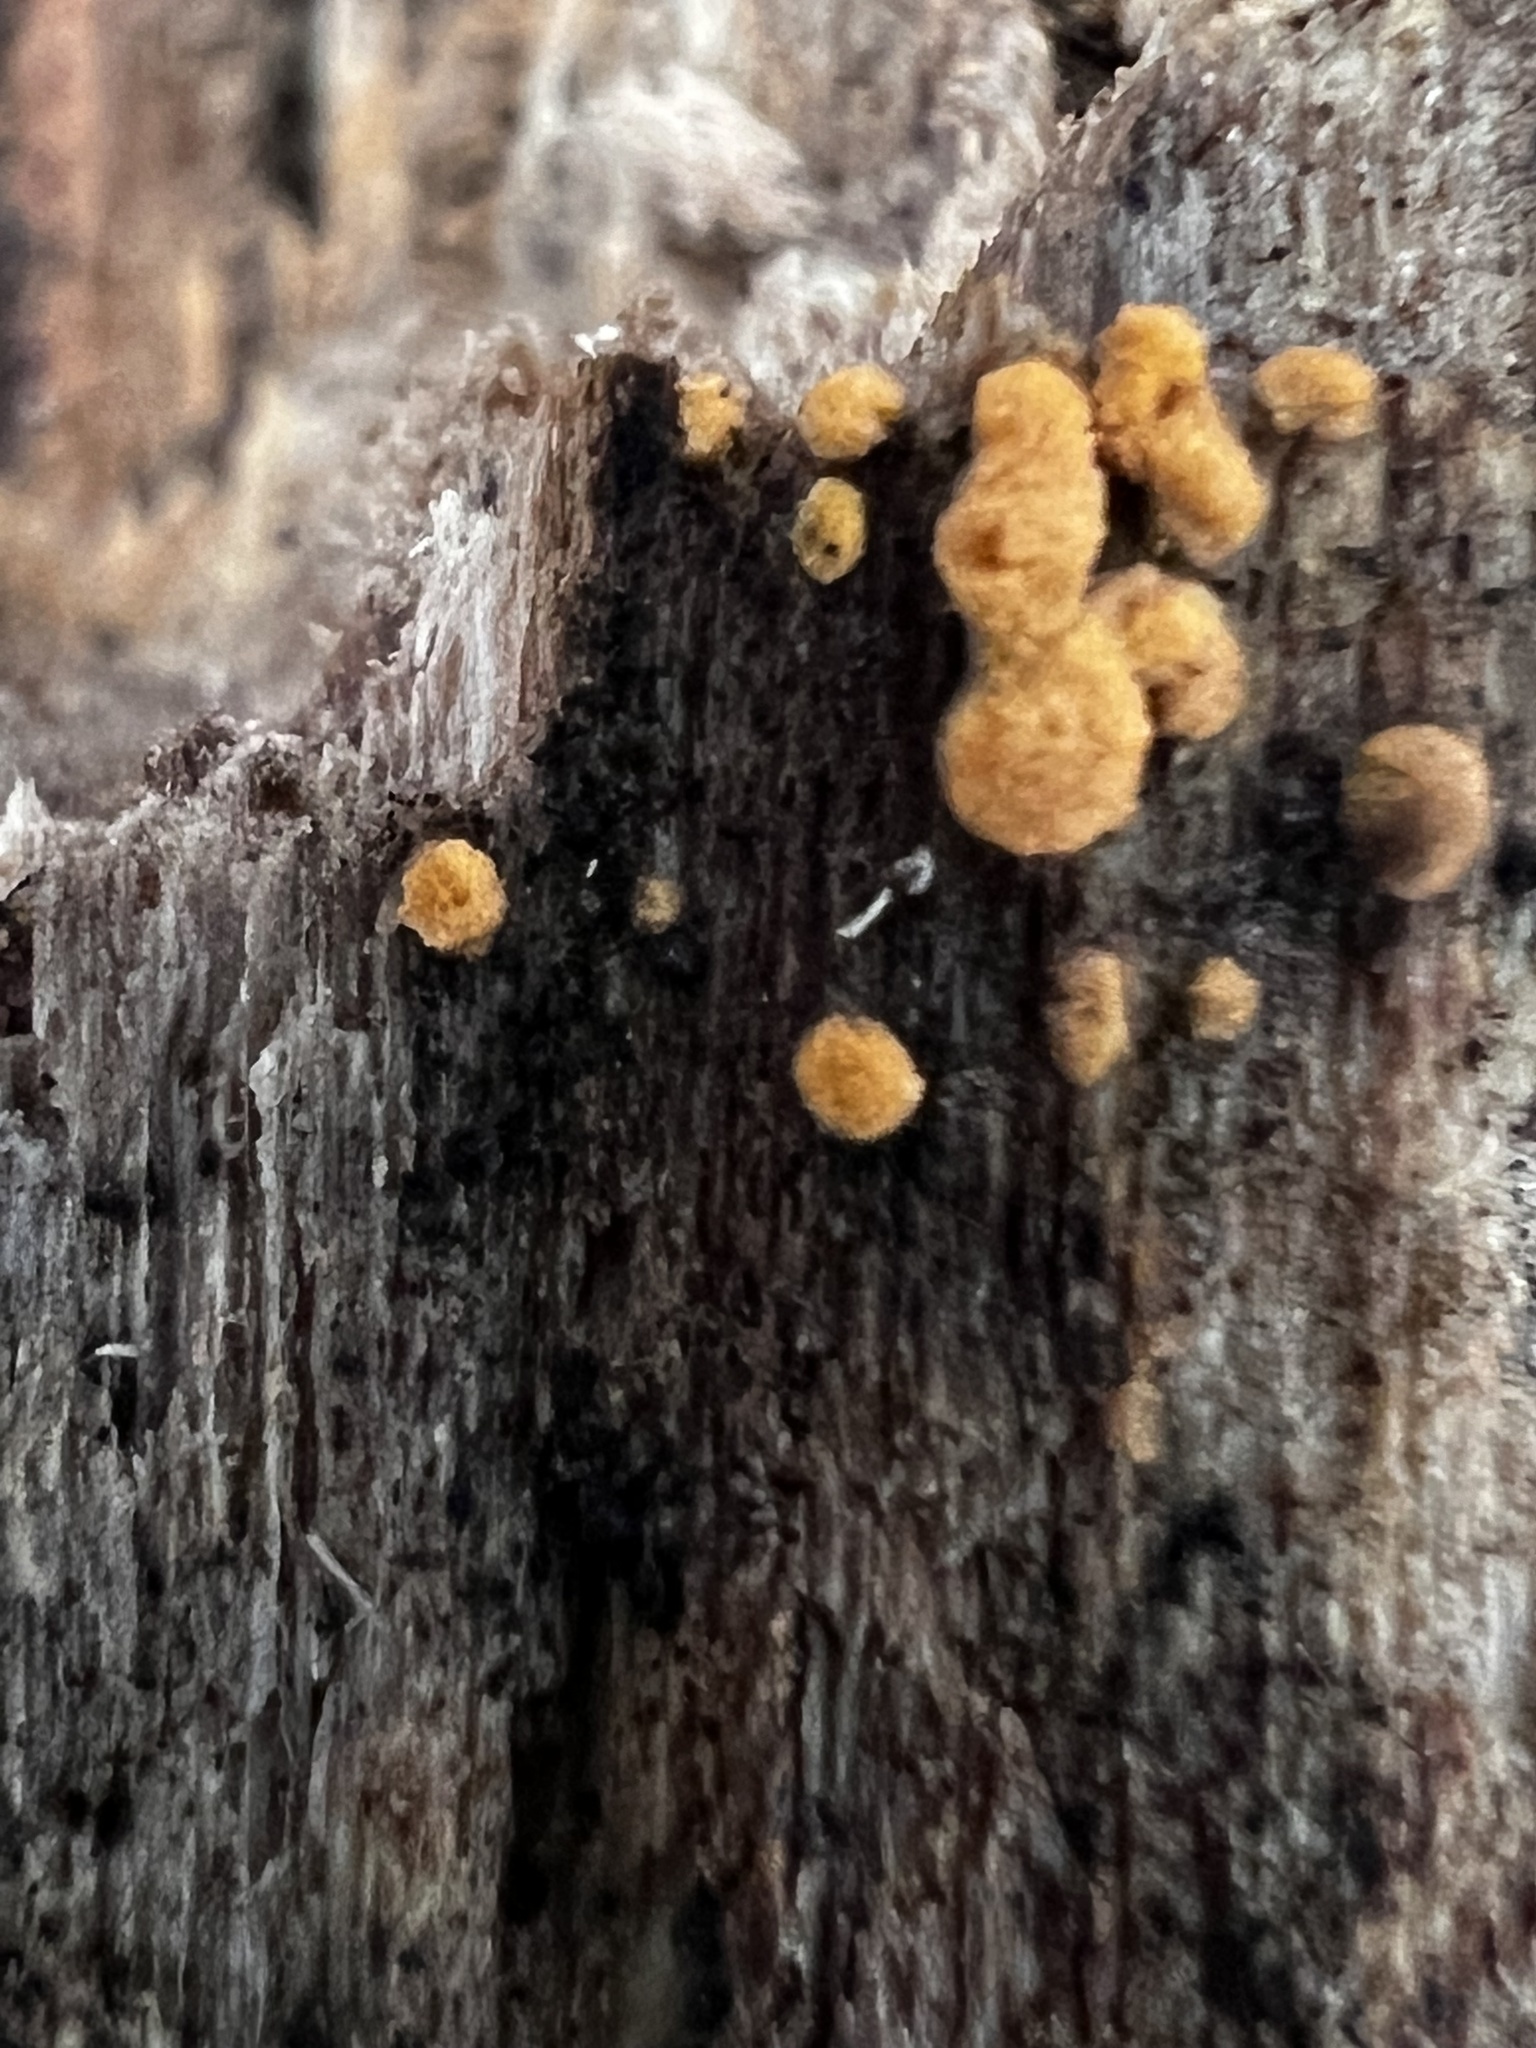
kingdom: Fungi
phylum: Ascomycota
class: Pezizomycetes
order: Pezizales
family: Pyronemataceae
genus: Sphaerosporium
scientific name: Sphaerosporium lignatile
